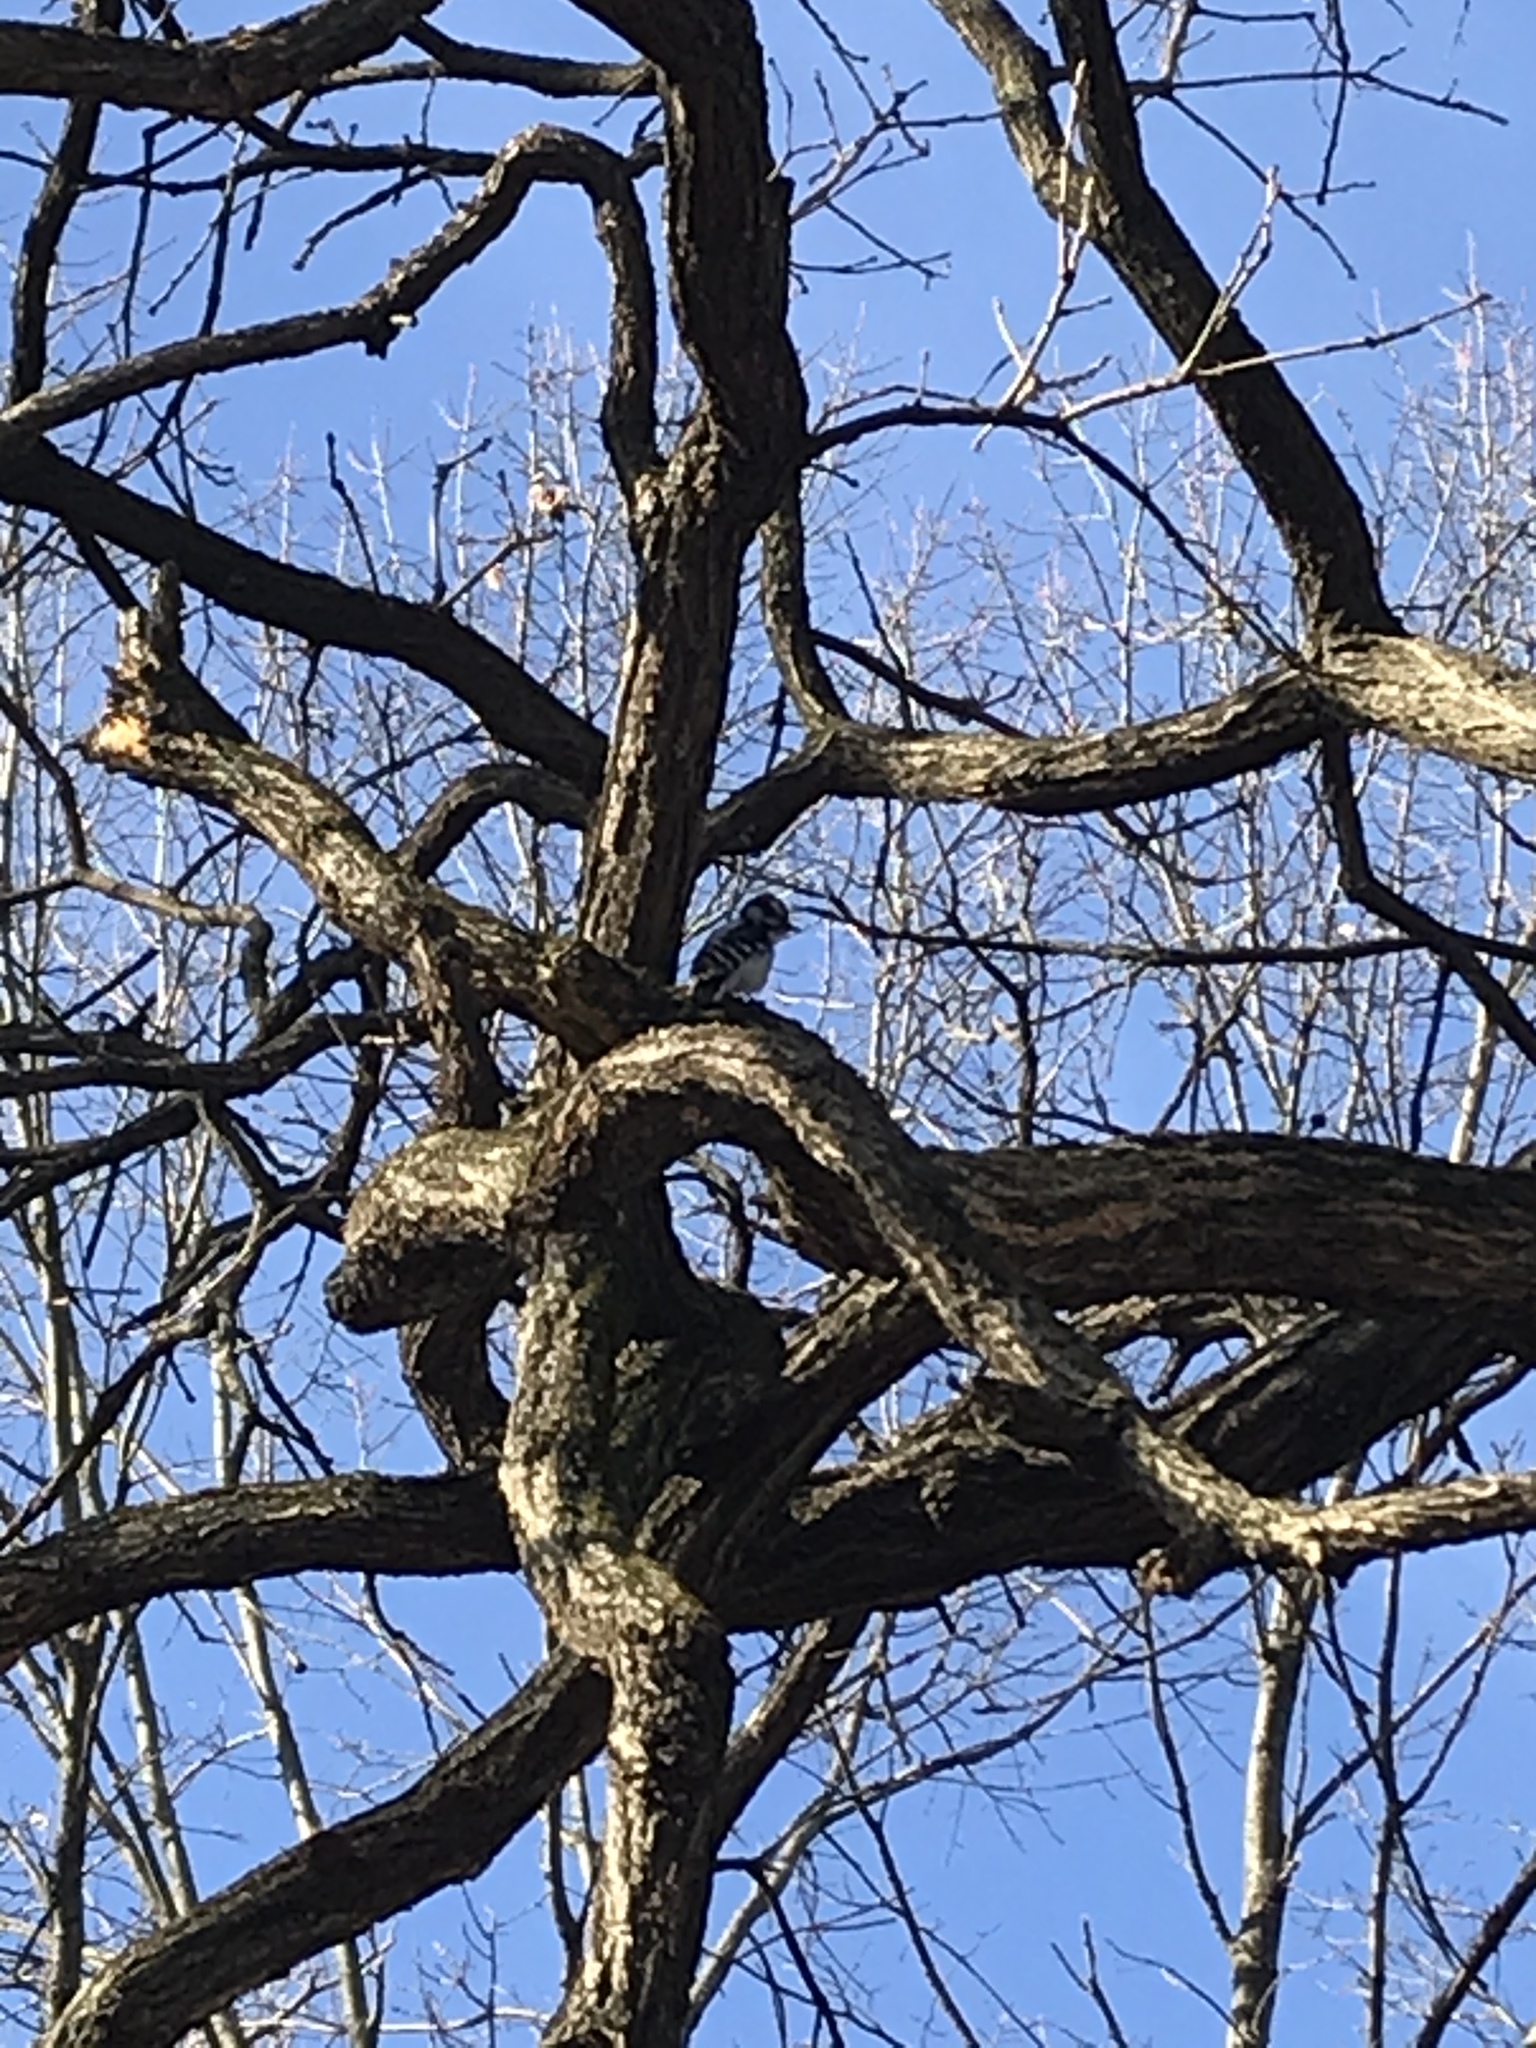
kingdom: Animalia
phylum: Chordata
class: Aves
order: Piciformes
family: Picidae
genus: Dryobates
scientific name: Dryobates pubescens
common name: Downy woodpecker
